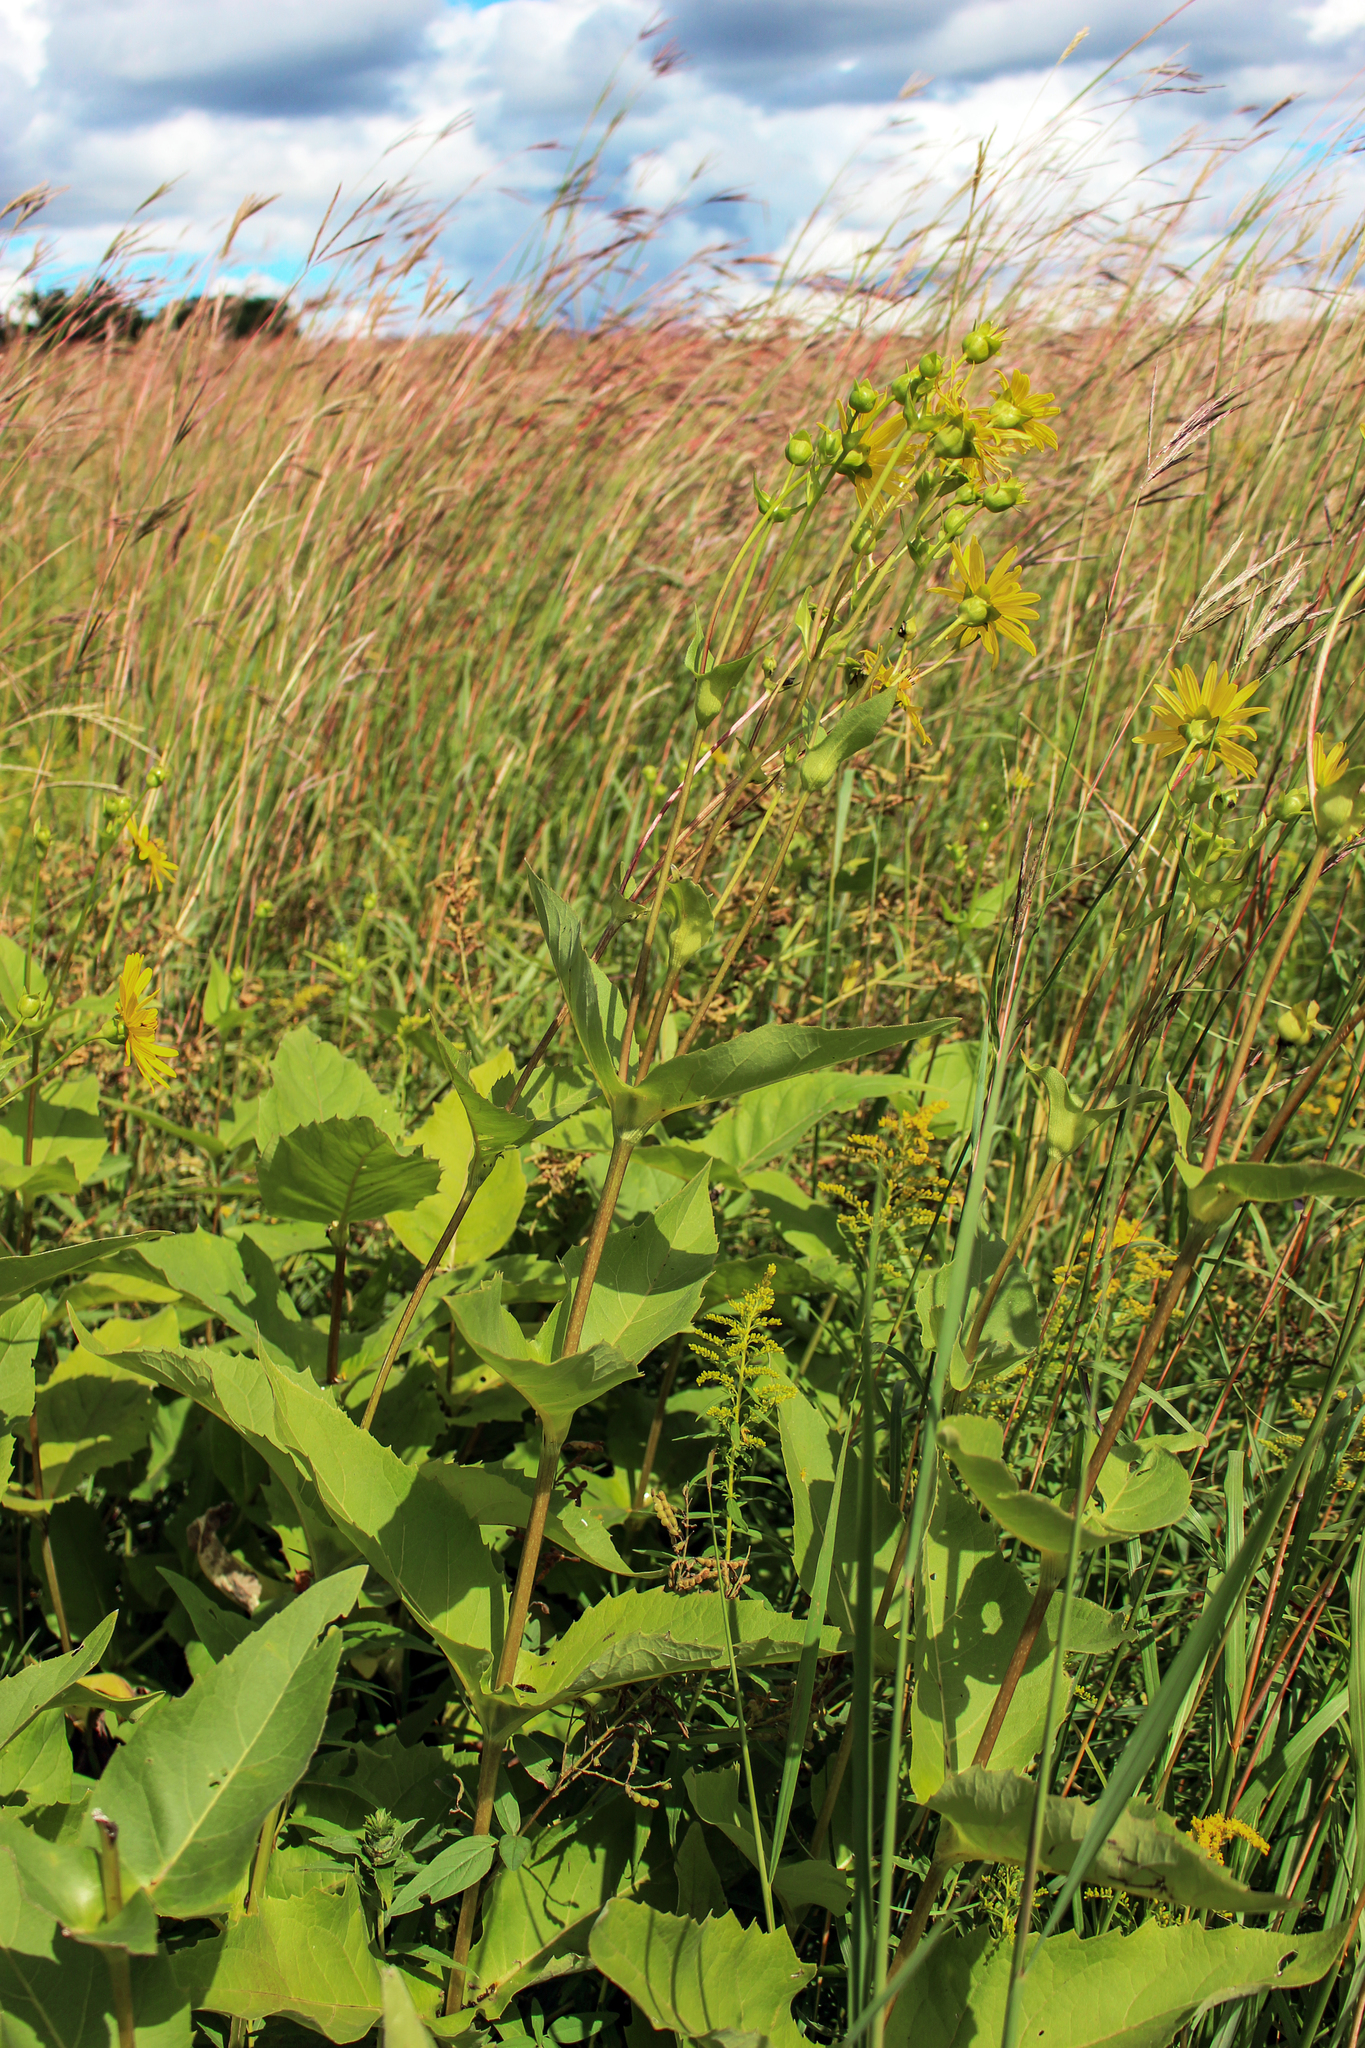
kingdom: Plantae
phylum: Tracheophyta
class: Magnoliopsida
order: Asterales
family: Asteraceae
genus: Silphium
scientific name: Silphium perfoliatum
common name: Cup-plant
